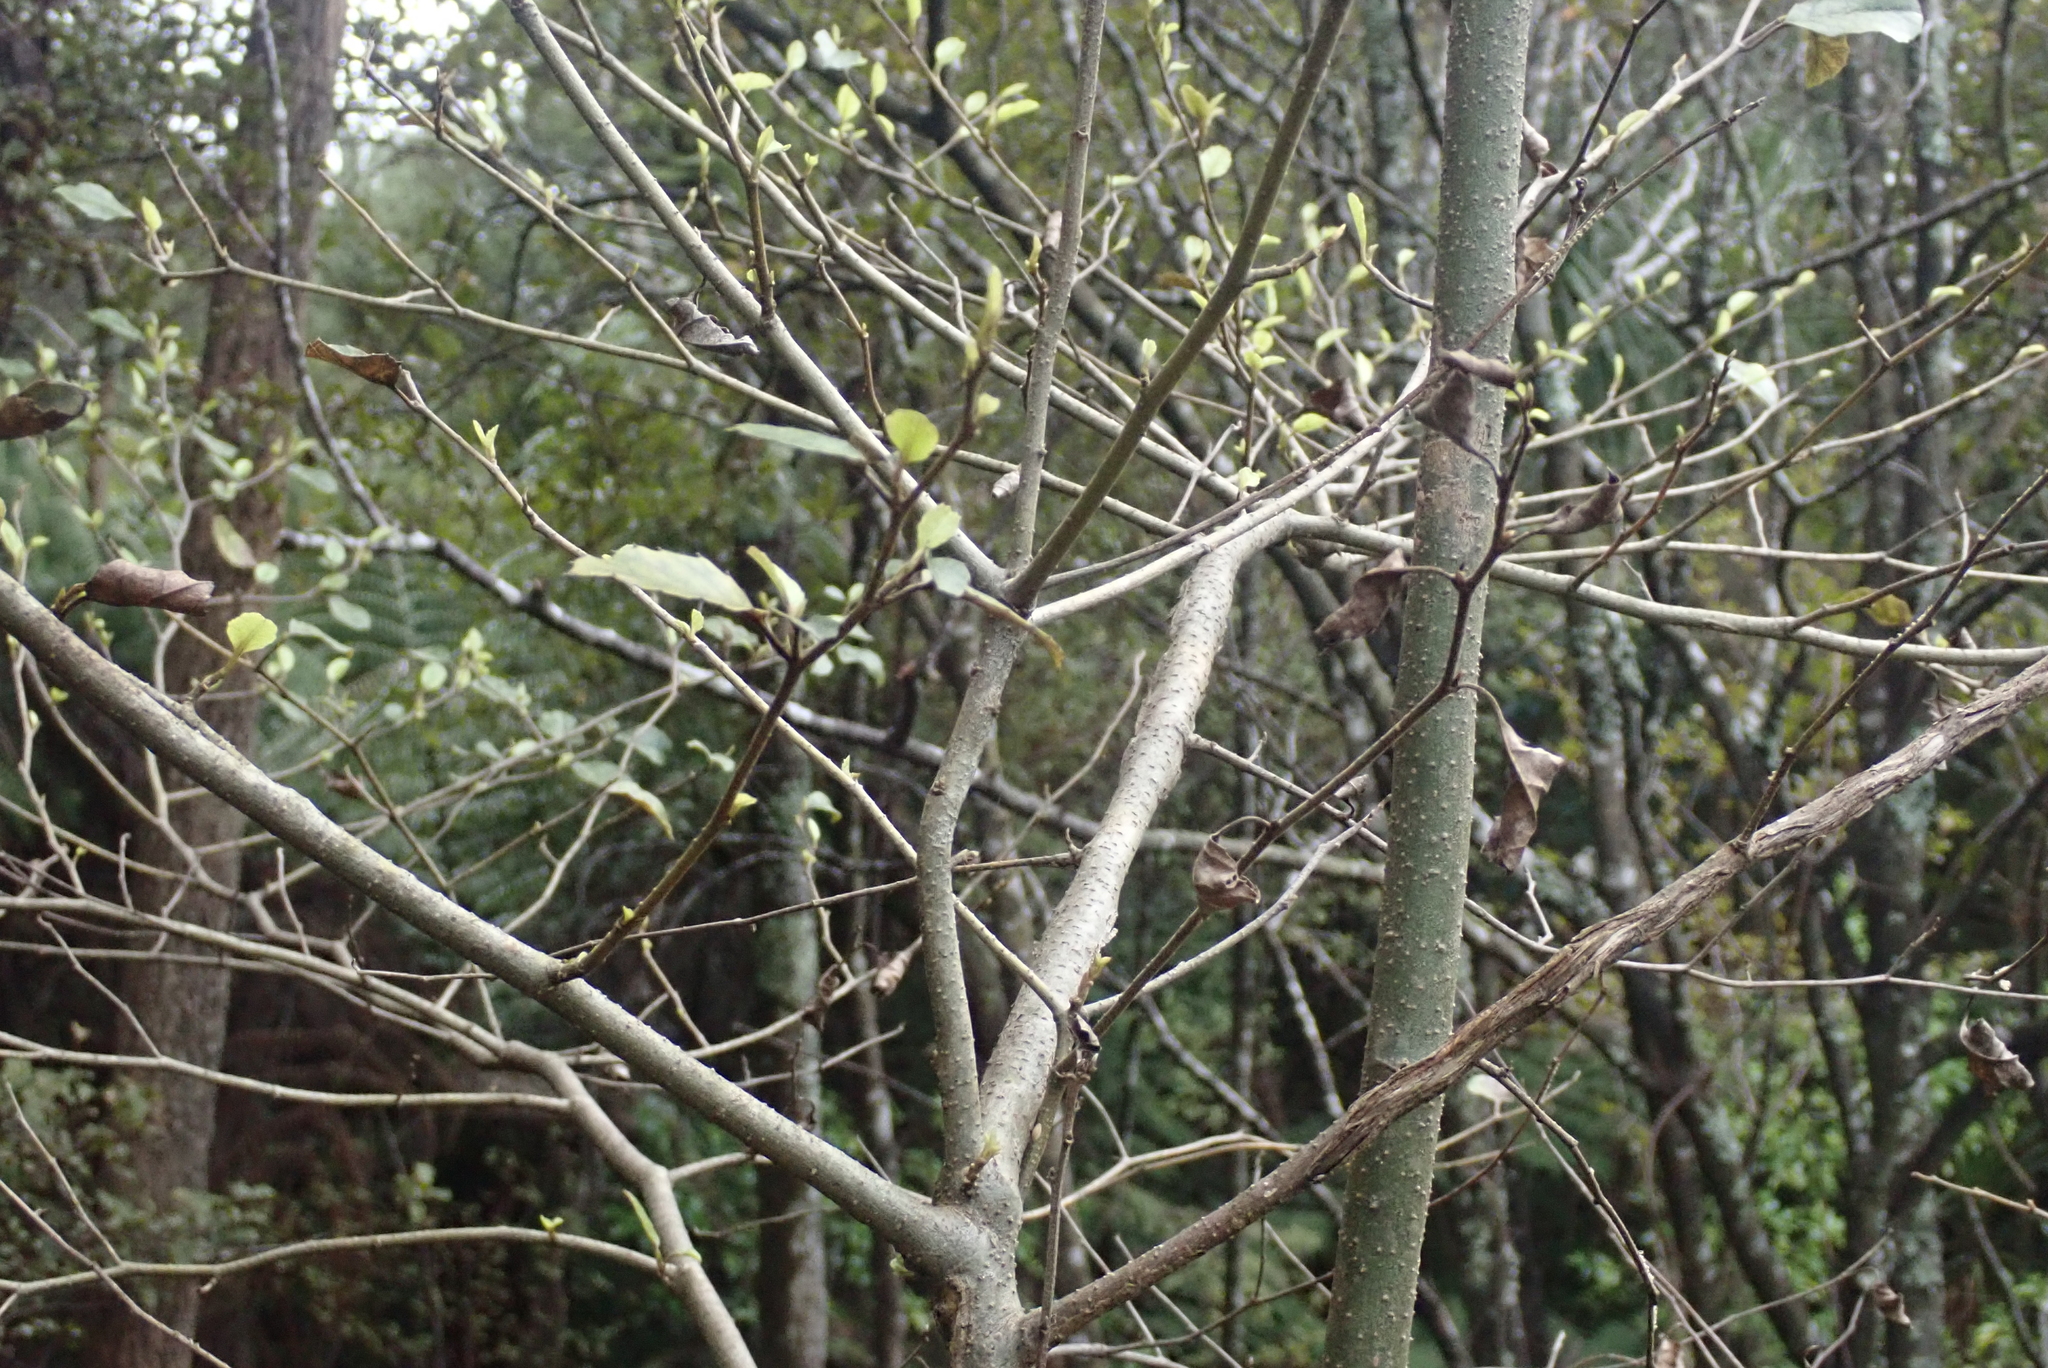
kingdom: Plantae
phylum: Tracheophyta
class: Magnoliopsida
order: Asterales
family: Rousseaceae
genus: Carpodetus
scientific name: Carpodetus serratus
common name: White mapau
